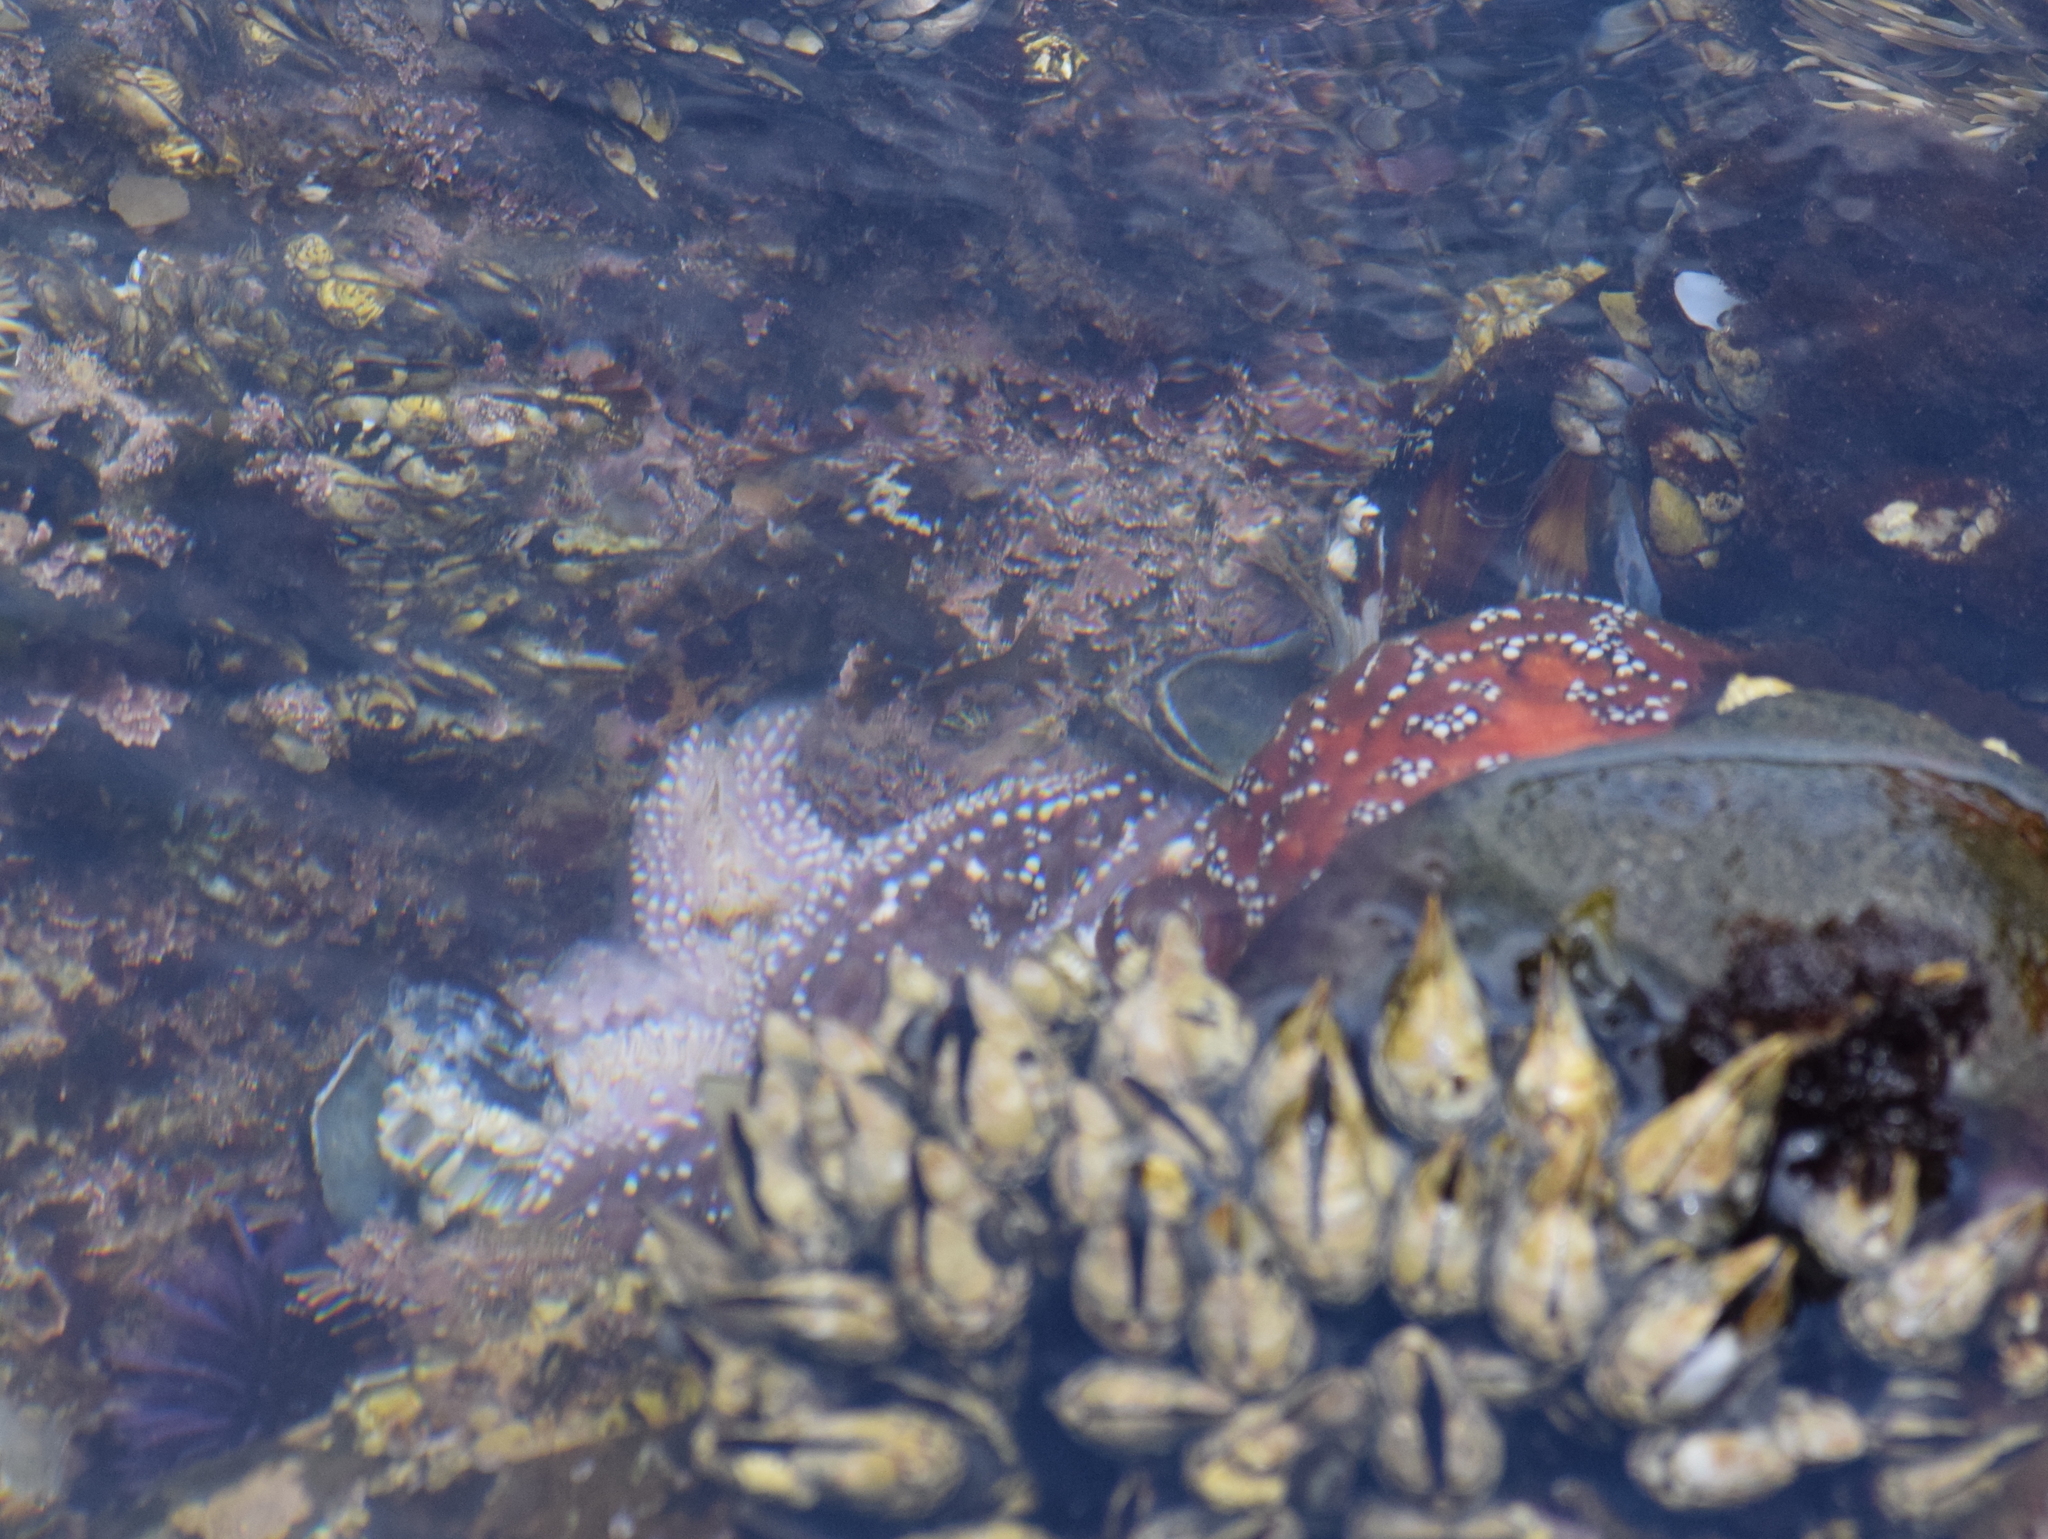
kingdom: Animalia
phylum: Echinodermata
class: Asteroidea
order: Forcipulatida
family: Asteriidae
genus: Pisaster
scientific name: Pisaster ochraceus
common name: Ochre stars
